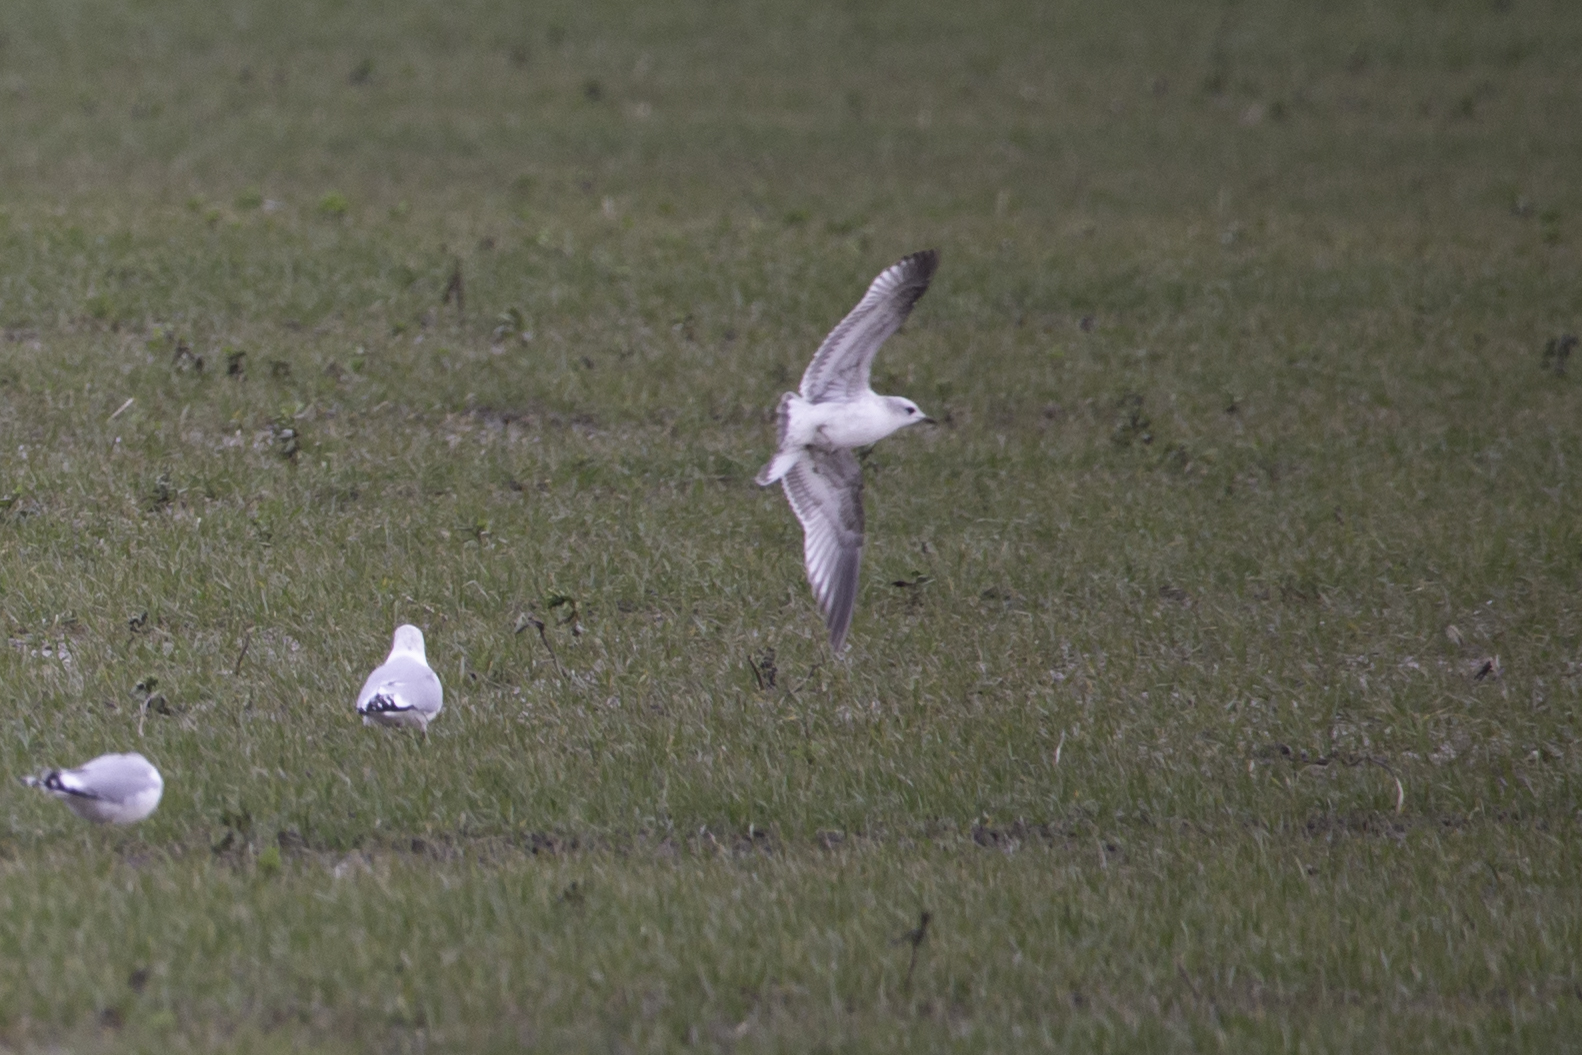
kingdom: Animalia
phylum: Chordata
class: Aves
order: Charadriiformes
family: Laridae
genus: Larus
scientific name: Larus canus
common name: Mew gull
